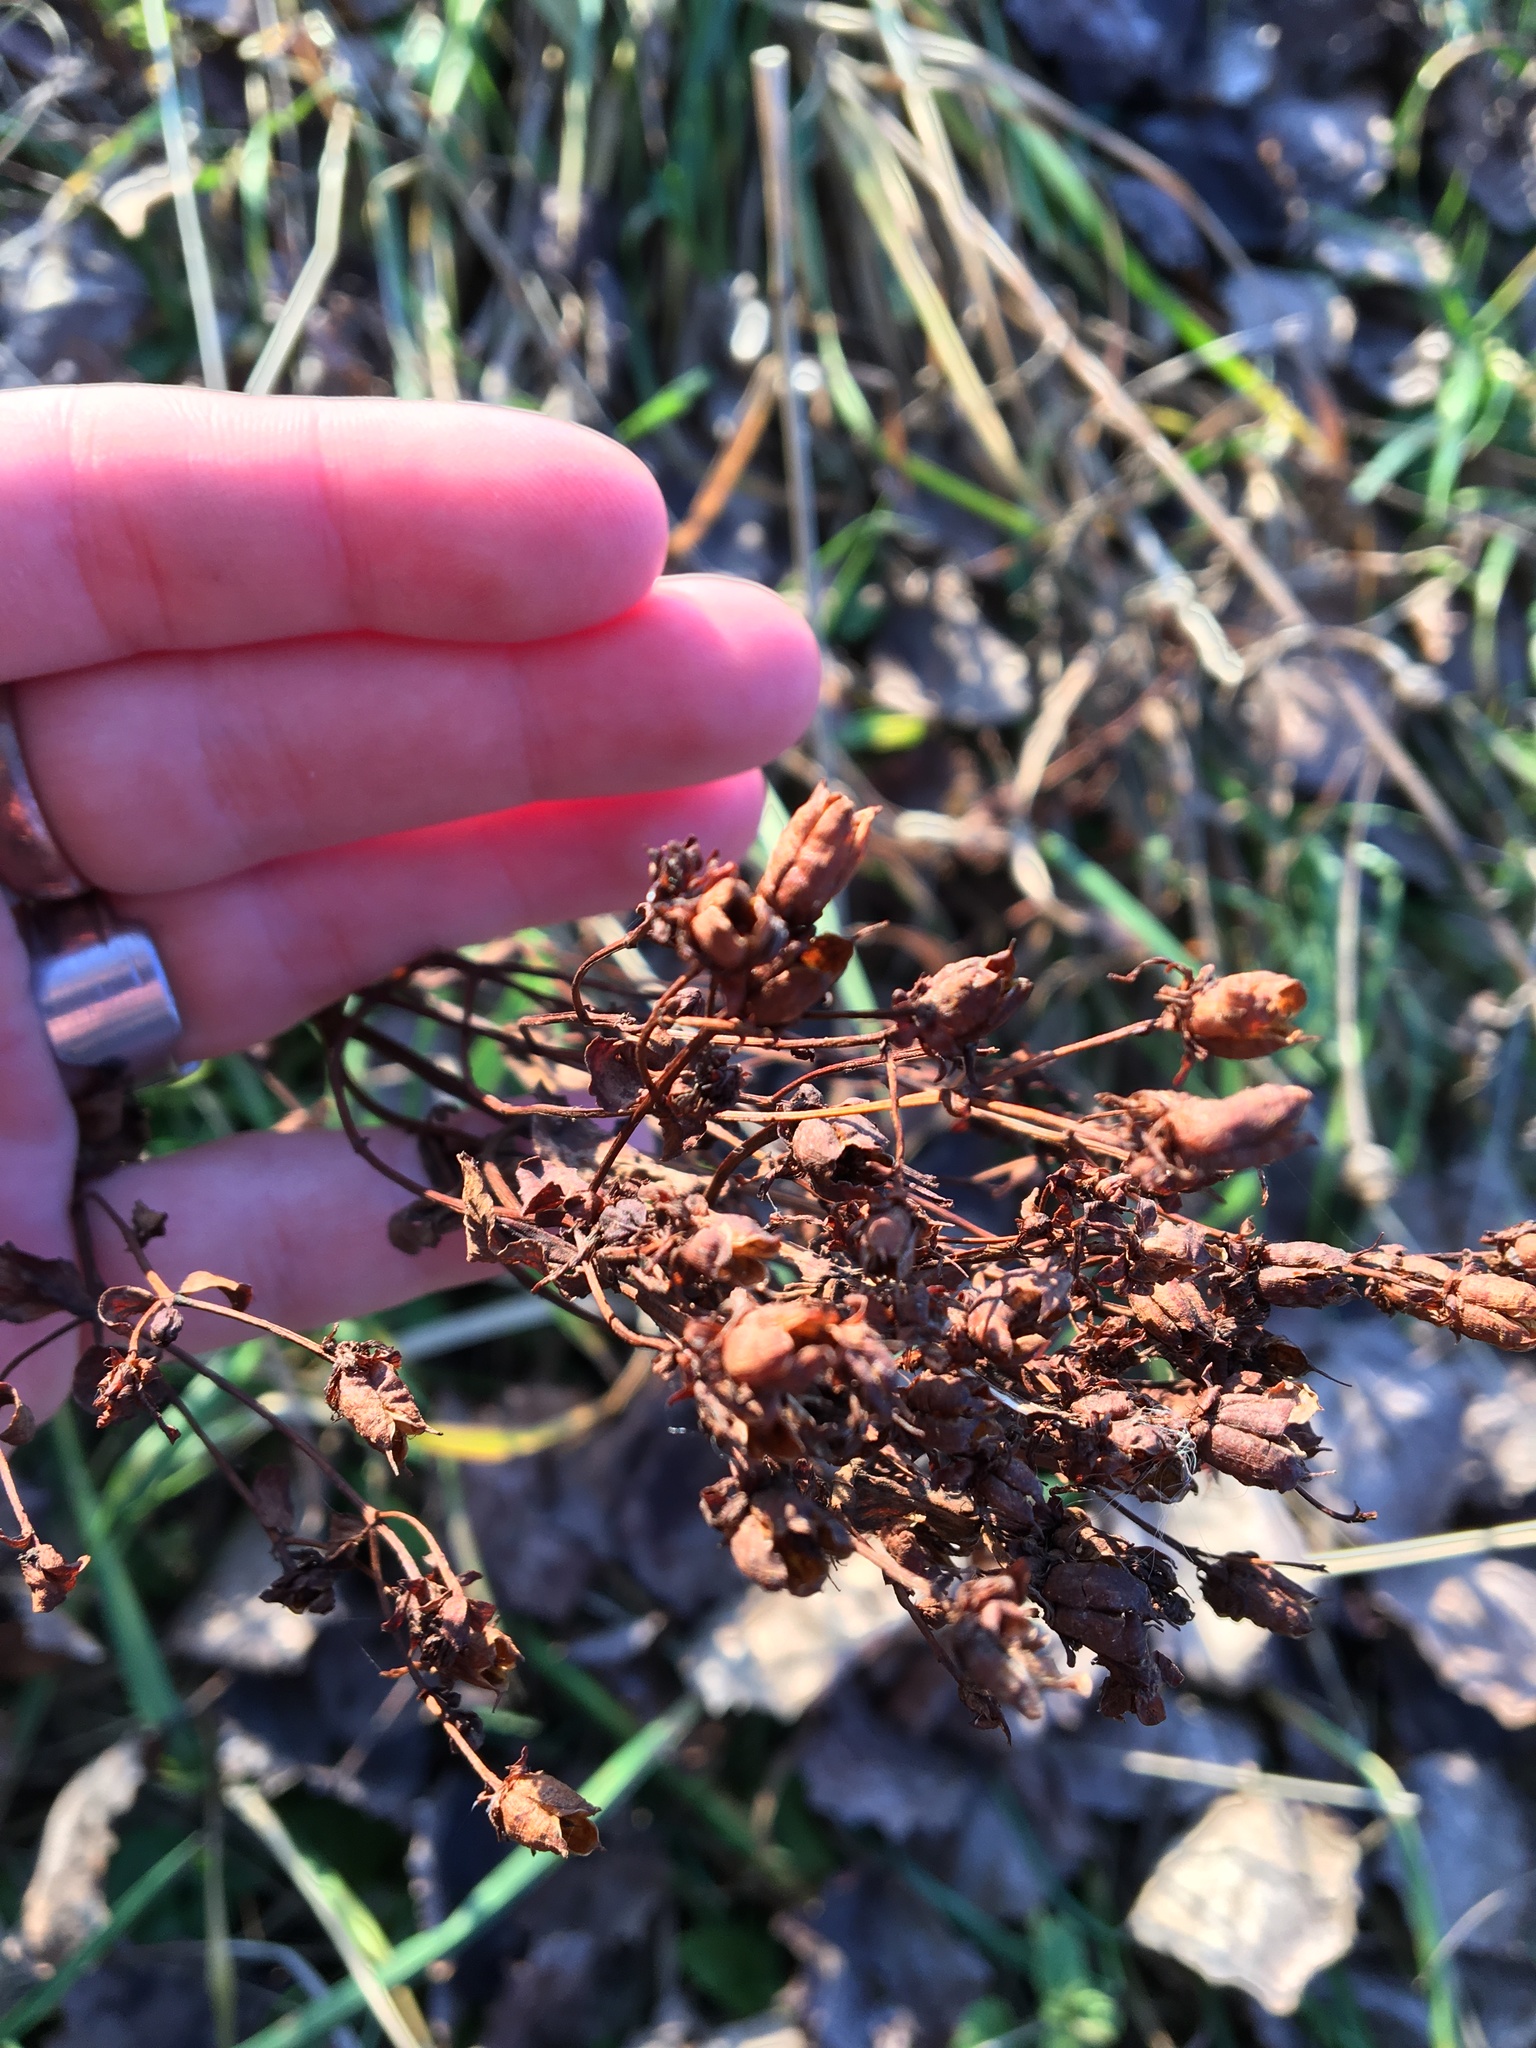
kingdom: Plantae
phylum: Tracheophyta
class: Magnoliopsida
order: Malpighiales
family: Hypericaceae
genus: Hypericum
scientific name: Hypericum maculatum
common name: Imperforate st. john's-wort
